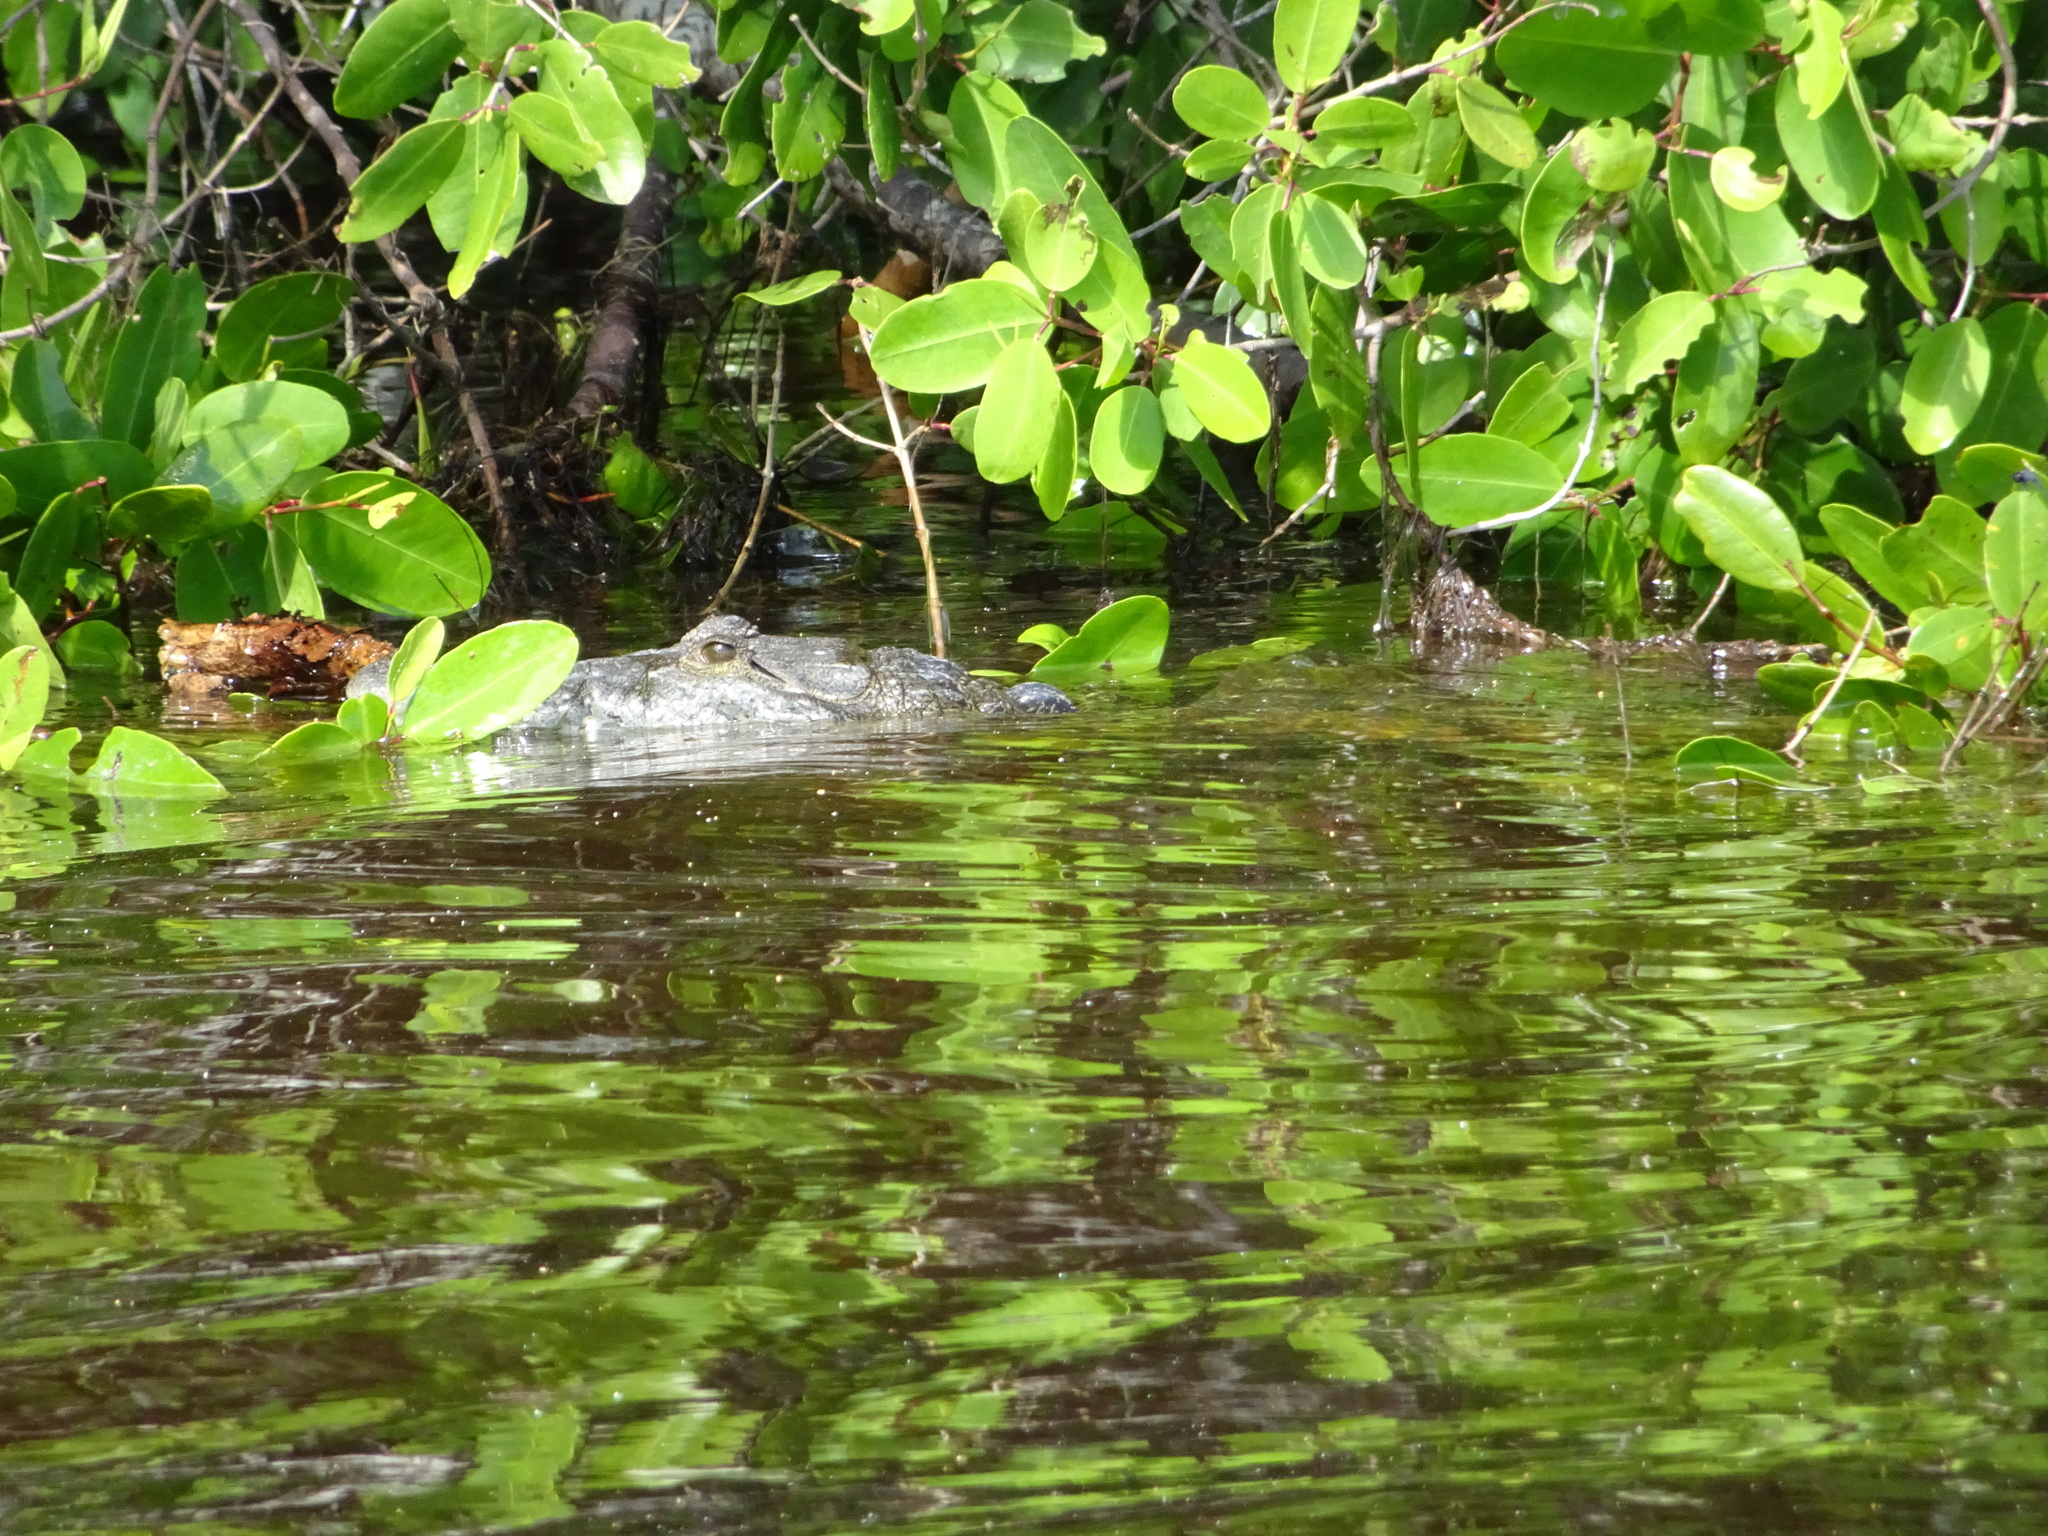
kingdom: Animalia
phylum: Chordata
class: Crocodylia
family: Crocodylidae
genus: Crocodylus
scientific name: Crocodylus moreletii
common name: Morelet's crocodile
